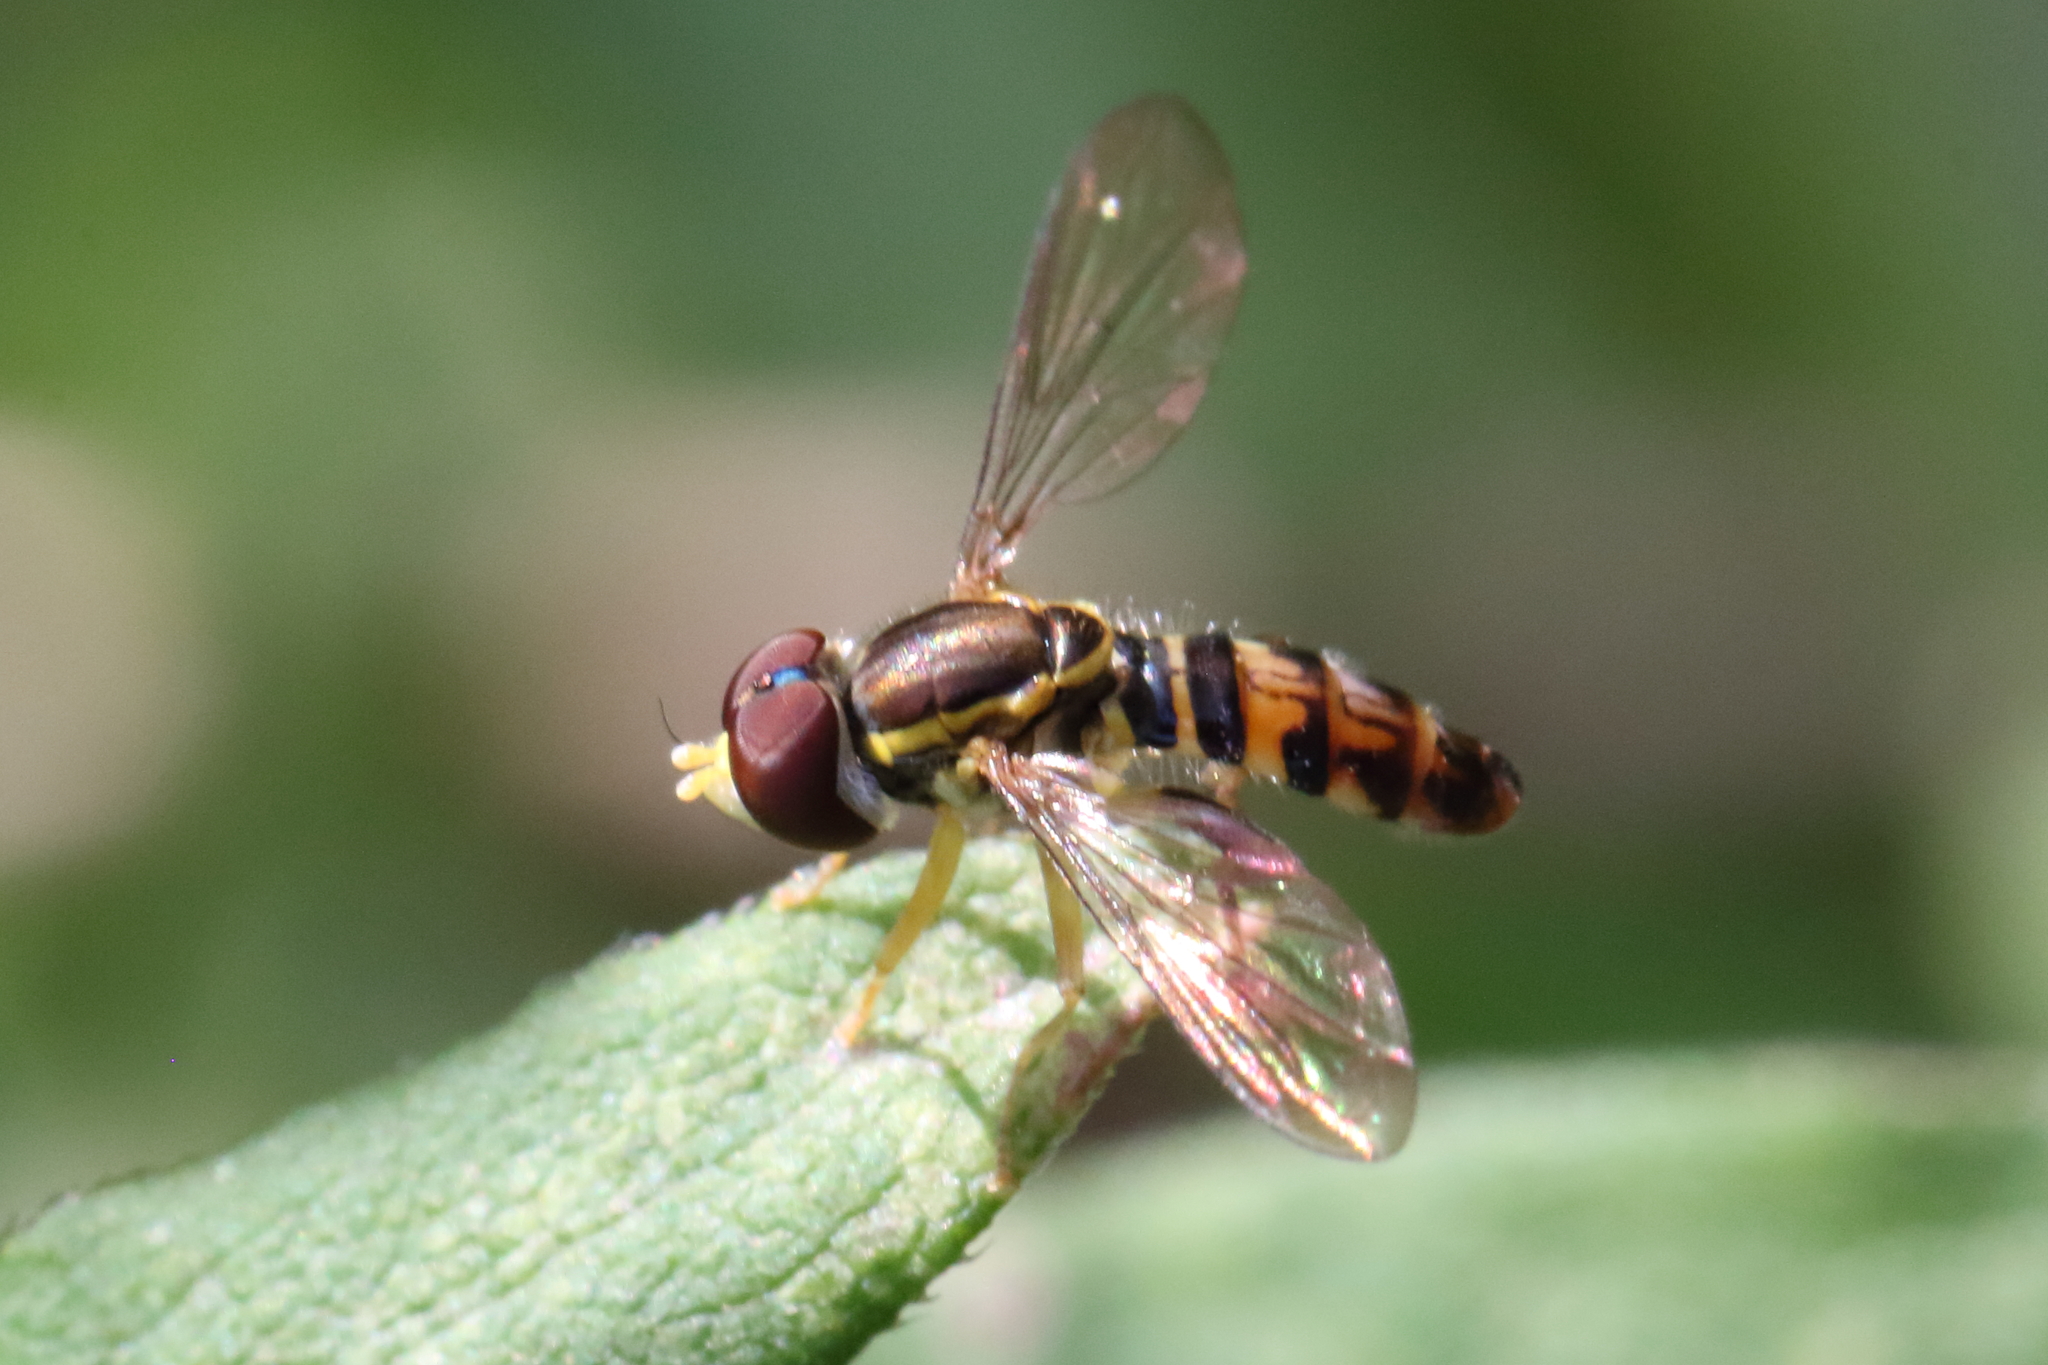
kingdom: Animalia
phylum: Arthropoda
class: Insecta
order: Diptera
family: Syrphidae
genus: Toxomerus
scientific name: Toxomerus geminatus
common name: Eastern calligrapher
